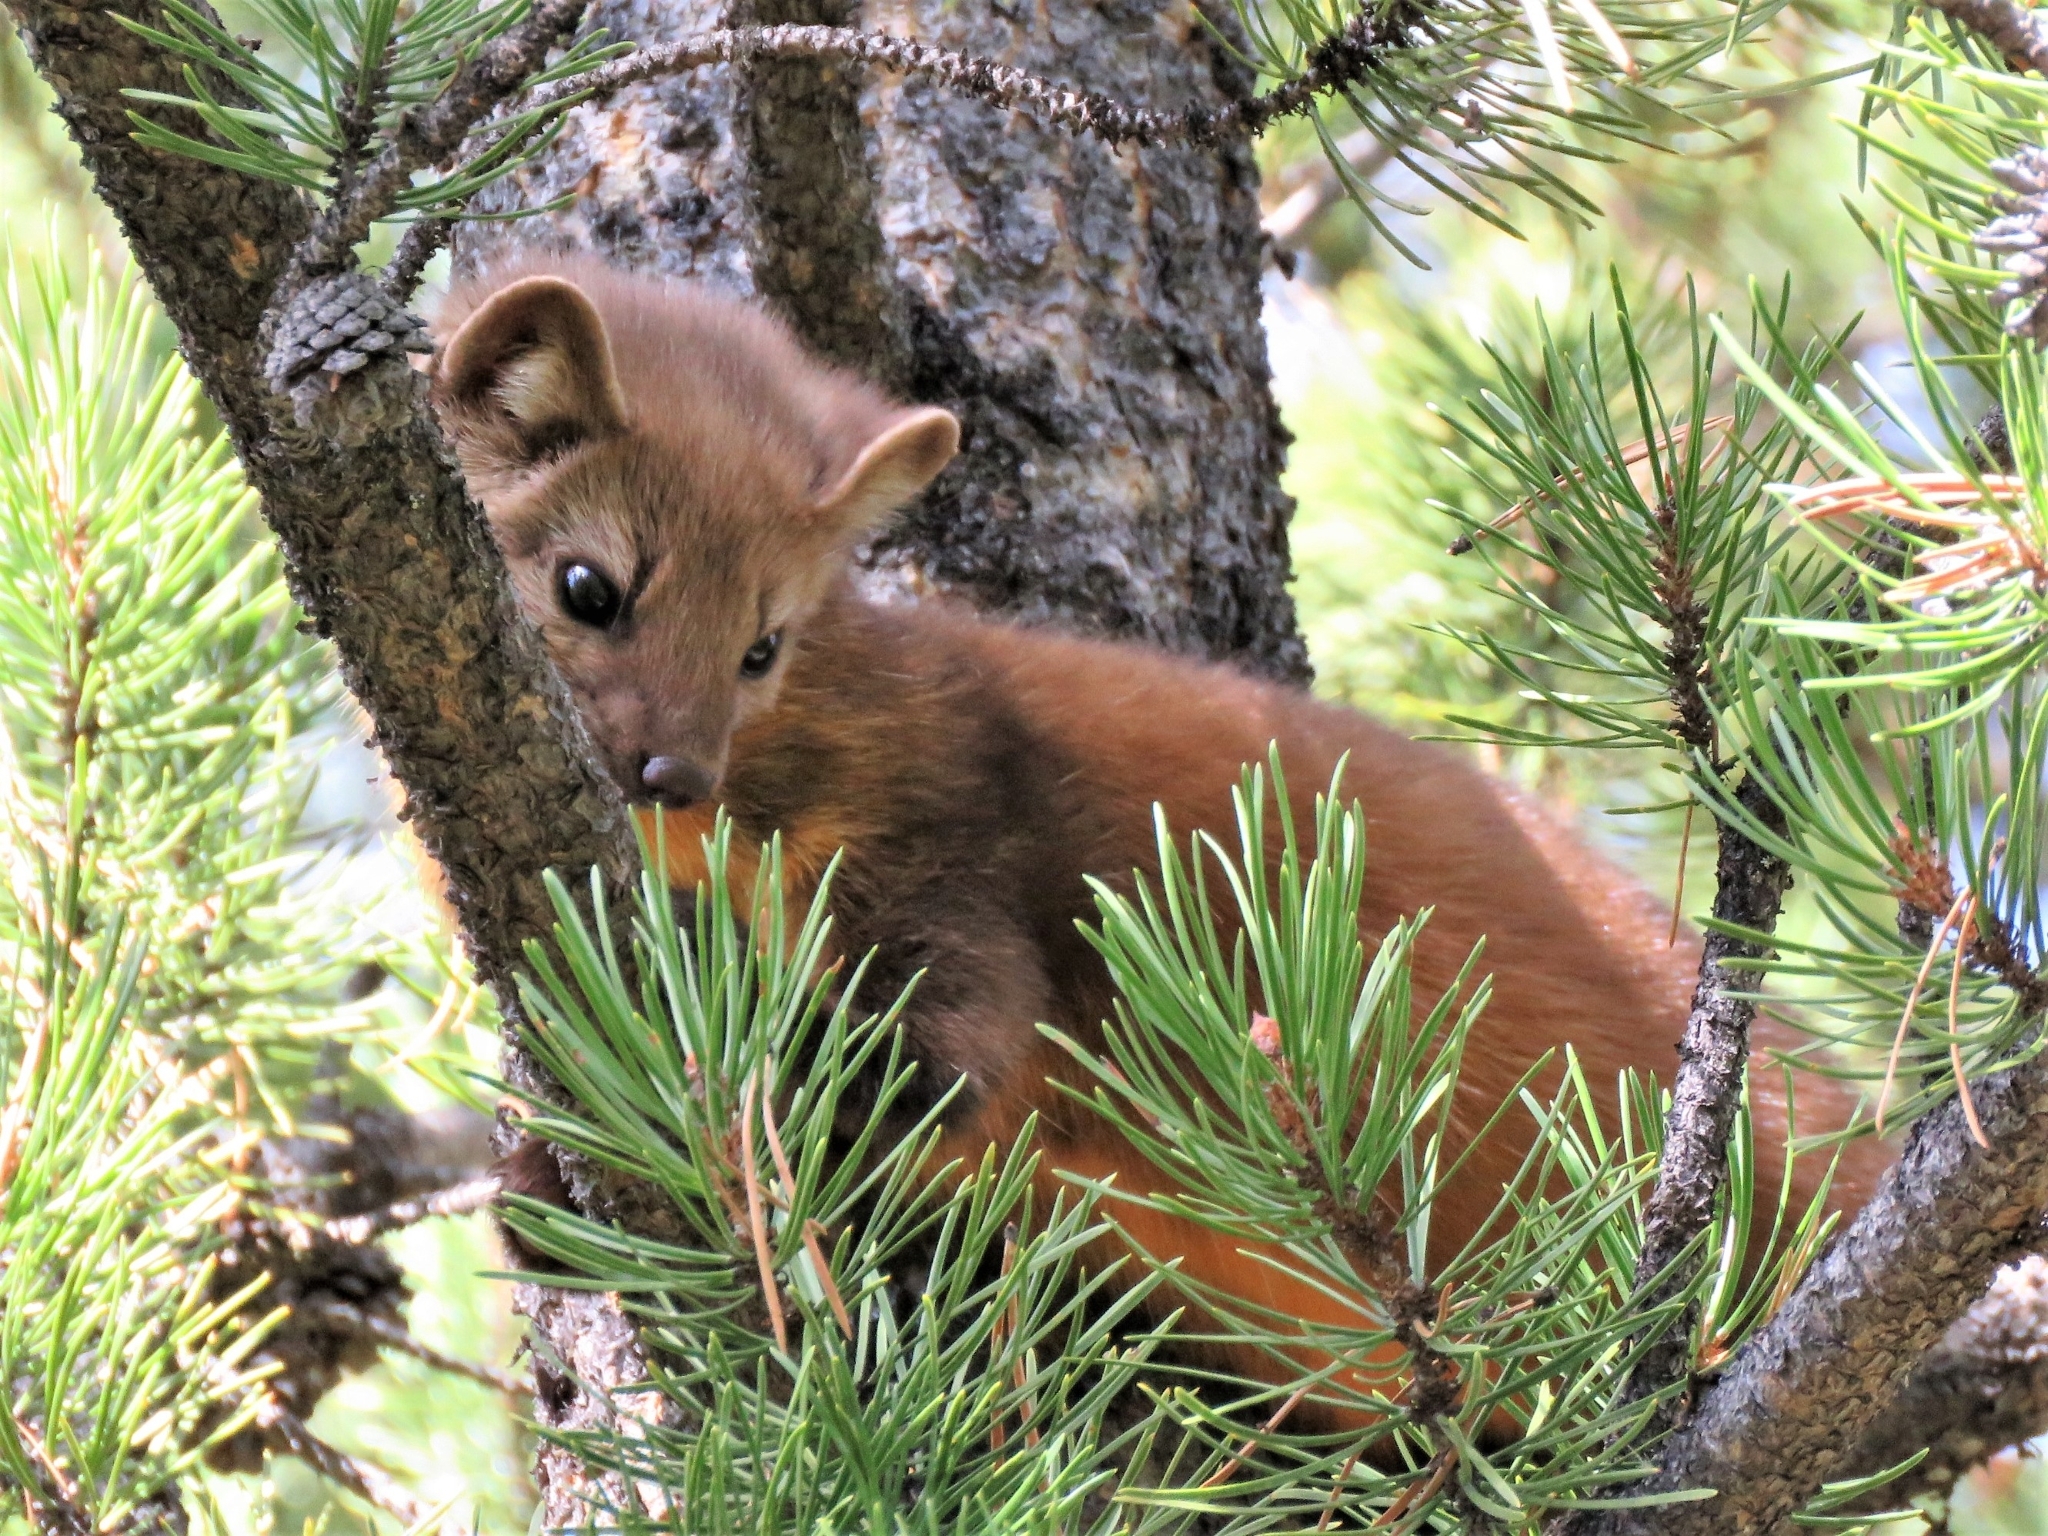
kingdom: Animalia
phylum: Chordata
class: Mammalia
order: Carnivora
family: Mustelidae
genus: Martes
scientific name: Martes caurina
